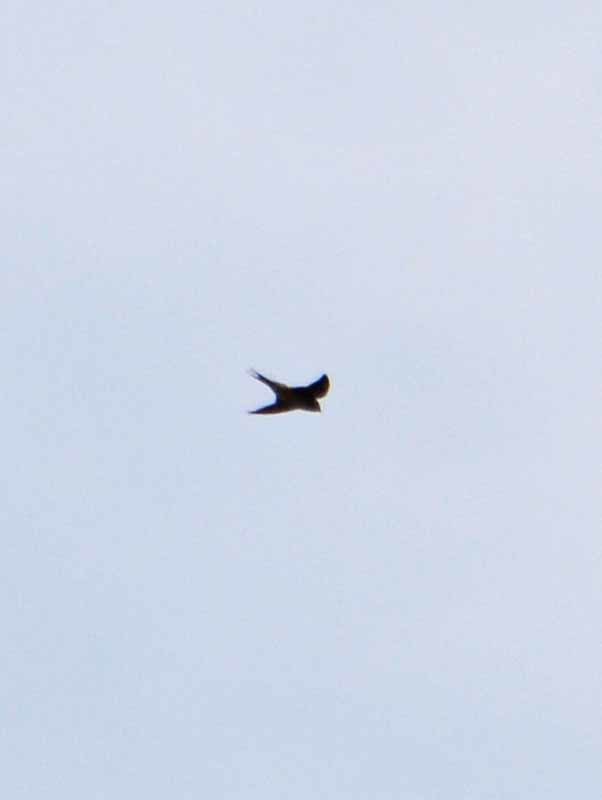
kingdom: Animalia
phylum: Chordata
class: Aves
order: Passeriformes
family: Hirundinidae
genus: Hirundo
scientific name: Hirundo rustica
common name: Barn swallow
